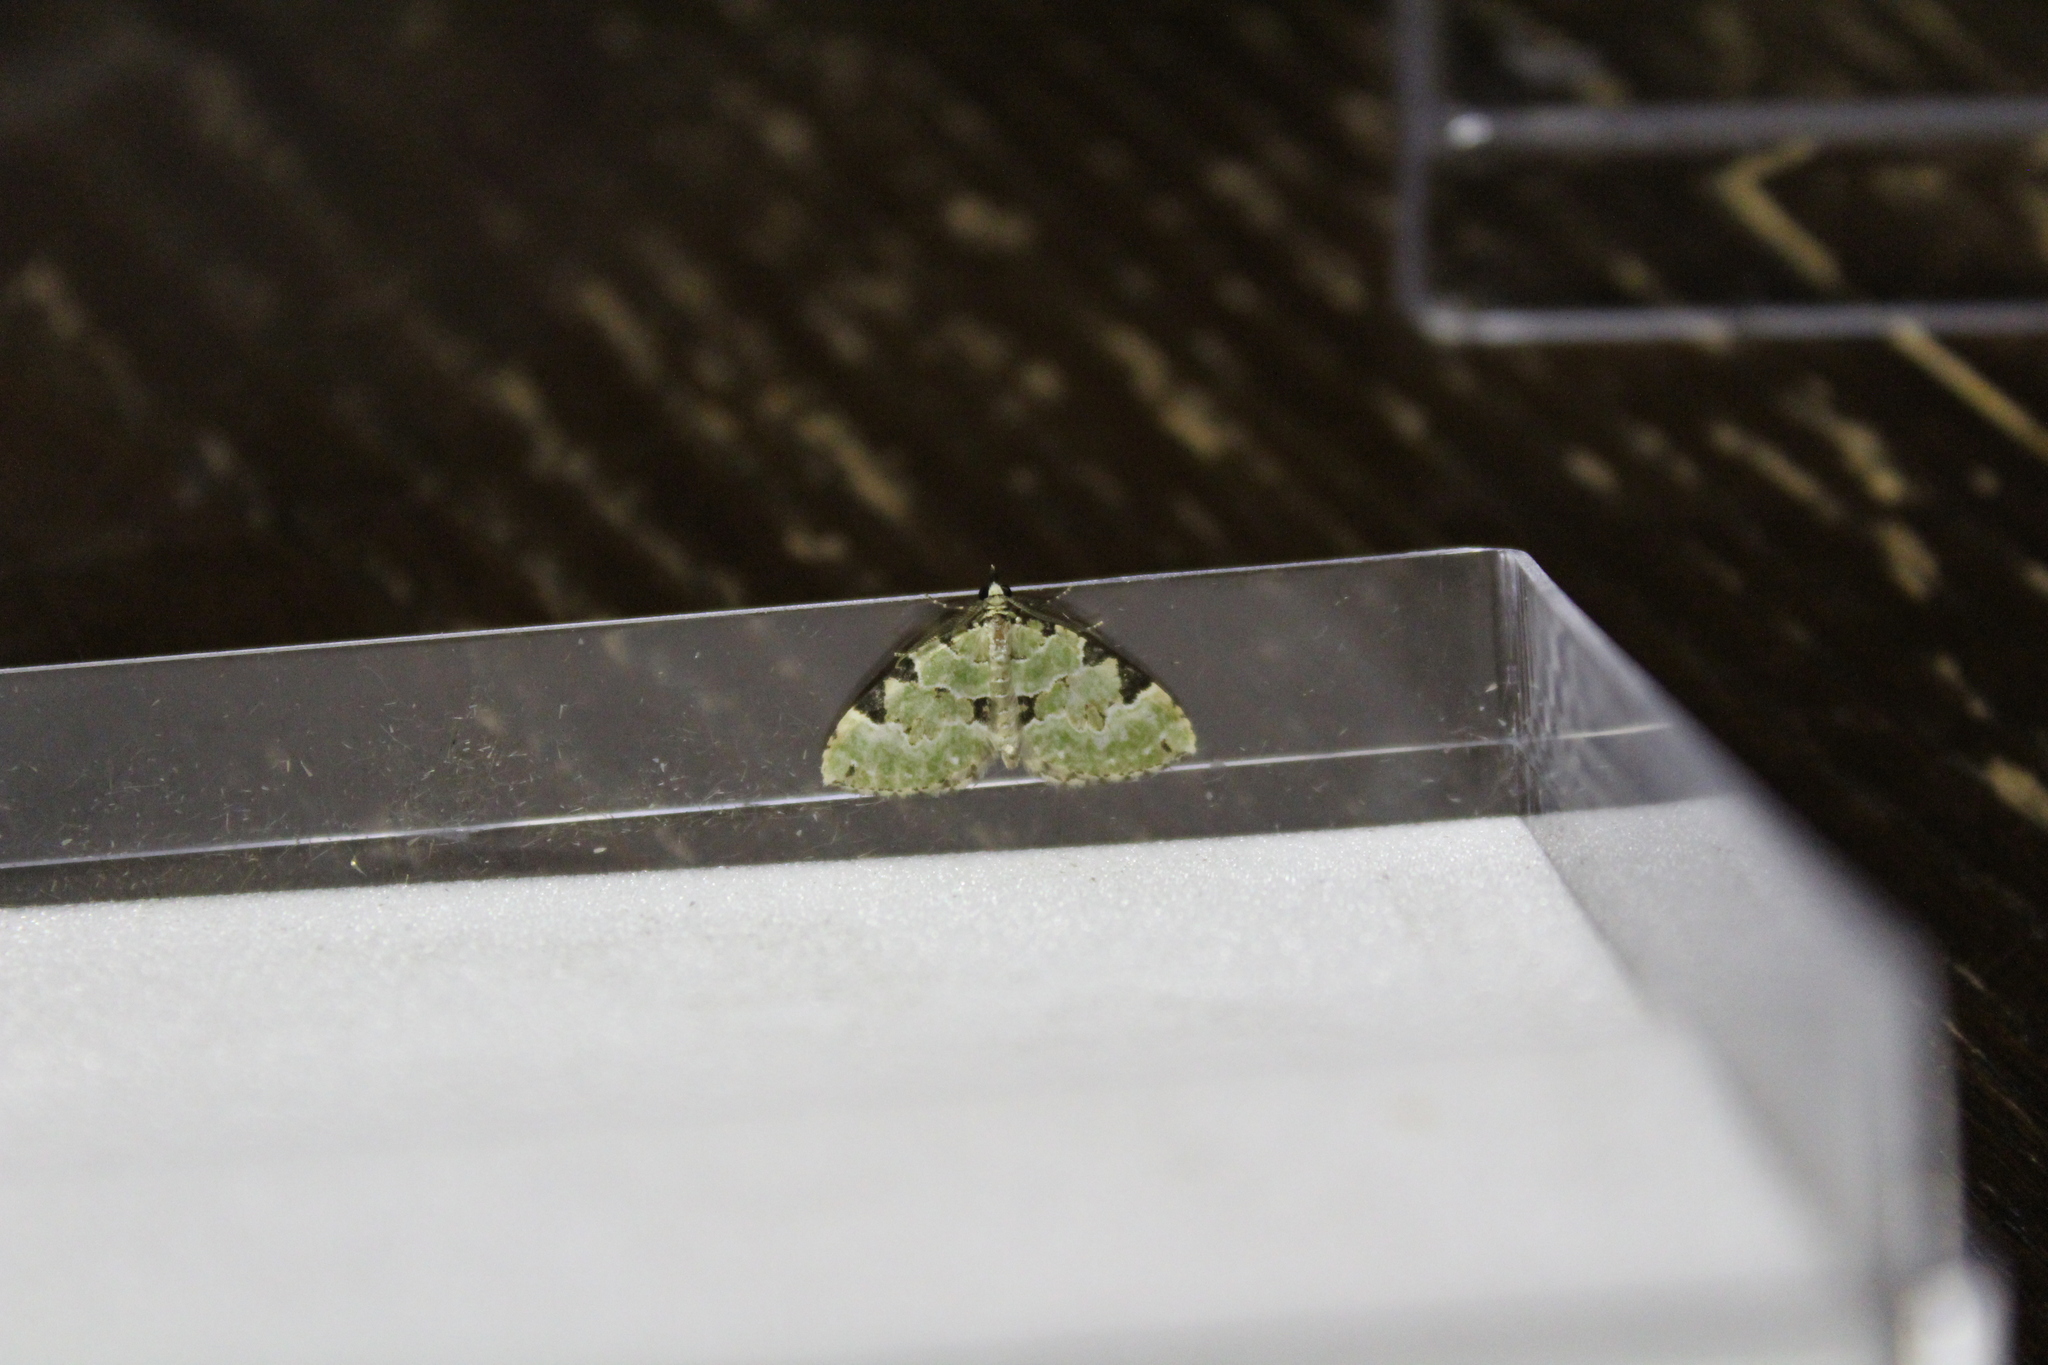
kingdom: Animalia
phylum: Arthropoda
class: Insecta
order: Lepidoptera
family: Geometridae
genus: Colostygia
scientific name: Colostygia pectinataria
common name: Green carpet
